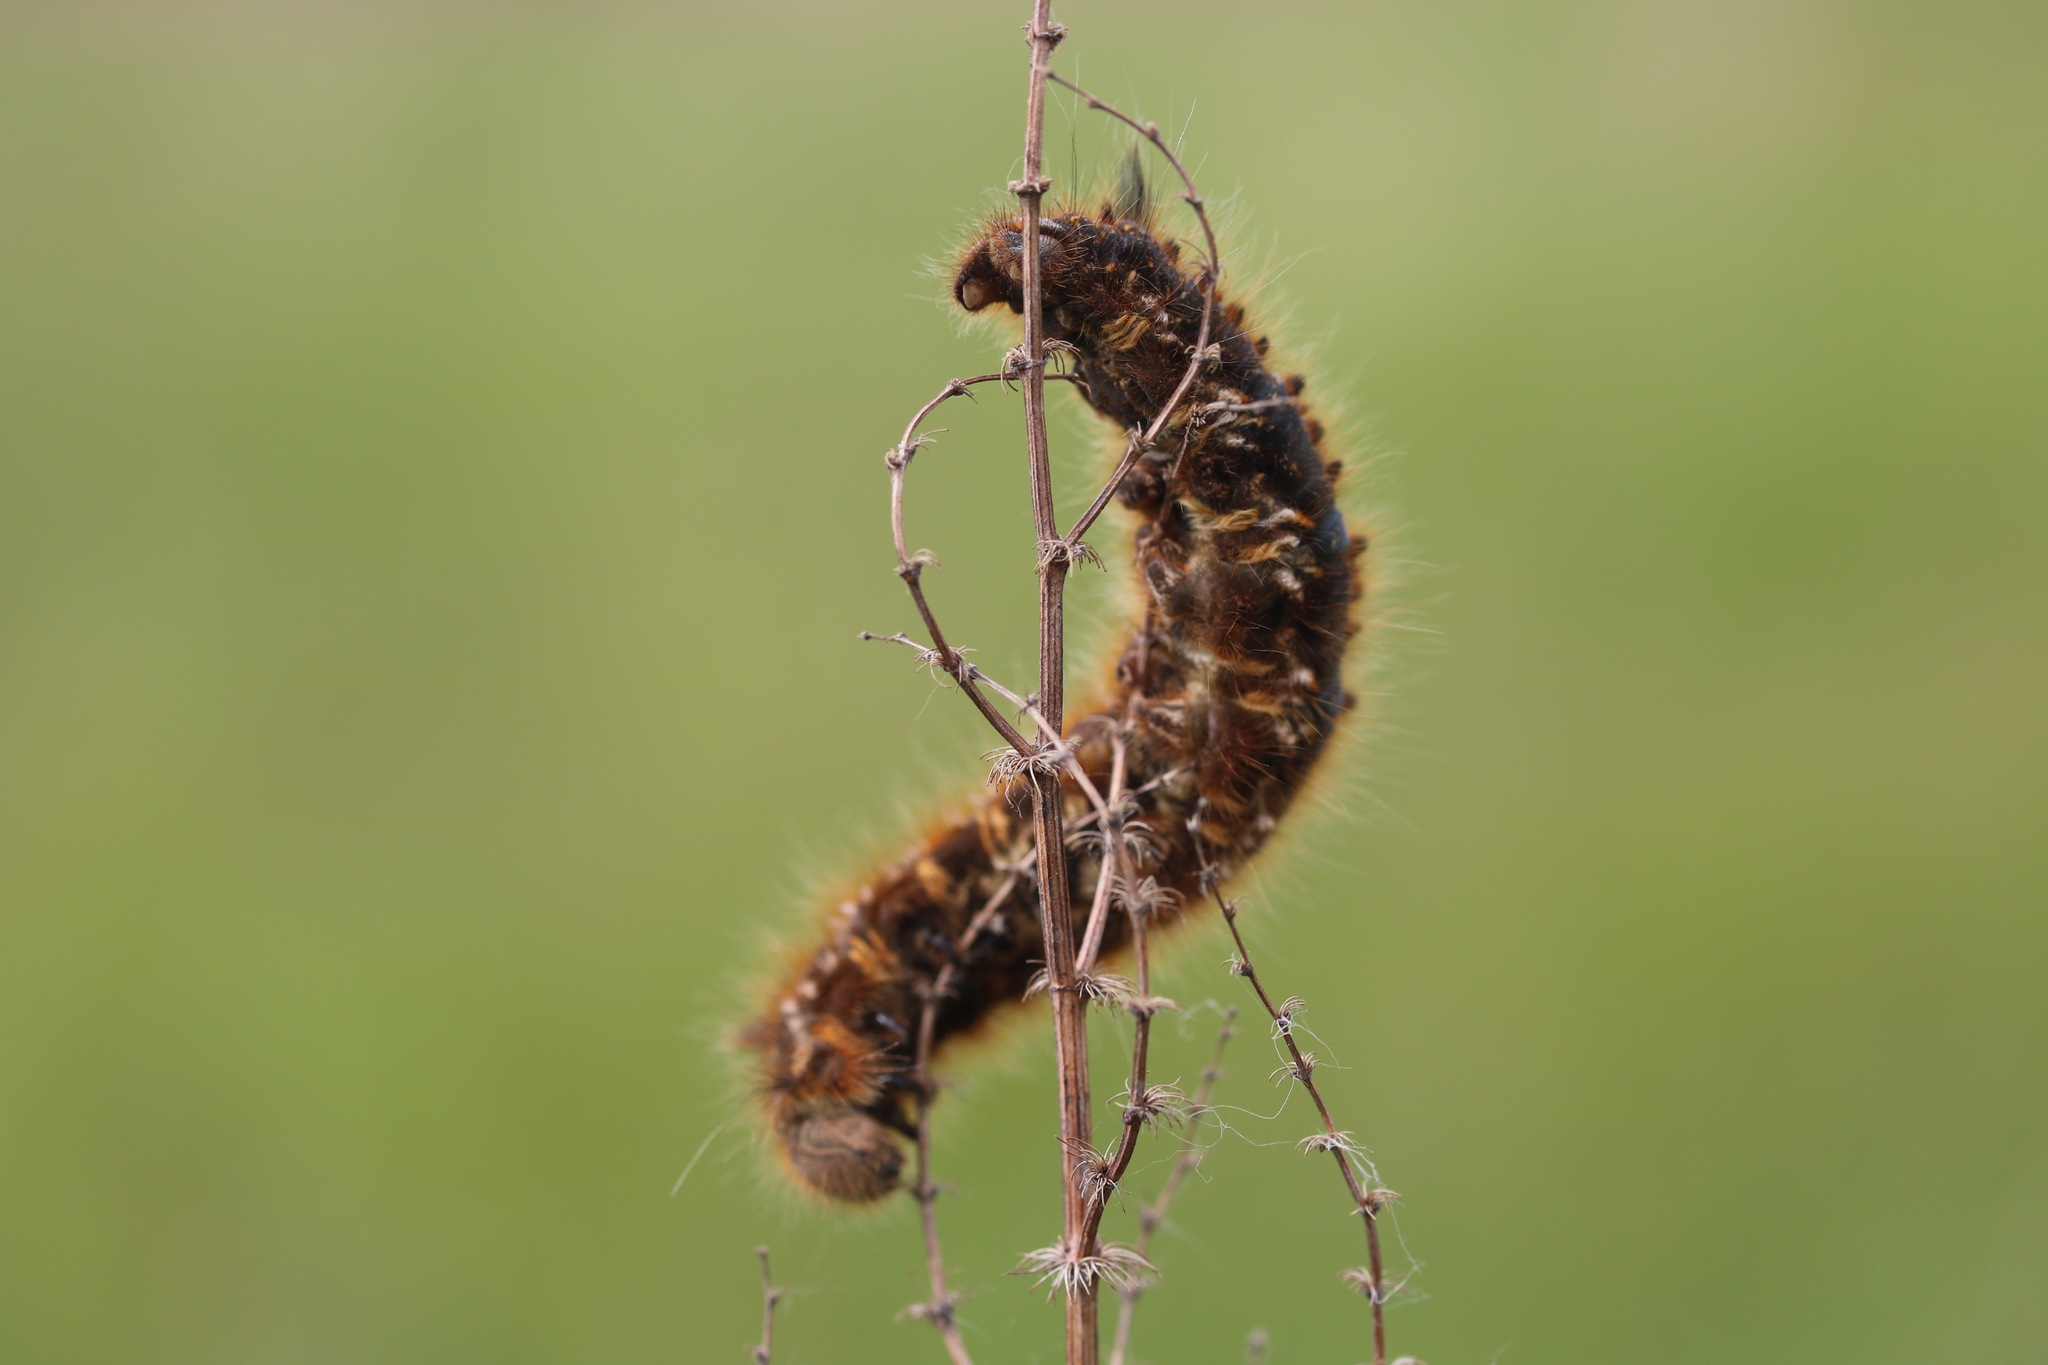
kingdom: Animalia
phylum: Arthropoda
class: Insecta
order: Lepidoptera
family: Lasiocampidae
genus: Euthrix
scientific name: Euthrix potatoria
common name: Drinker
